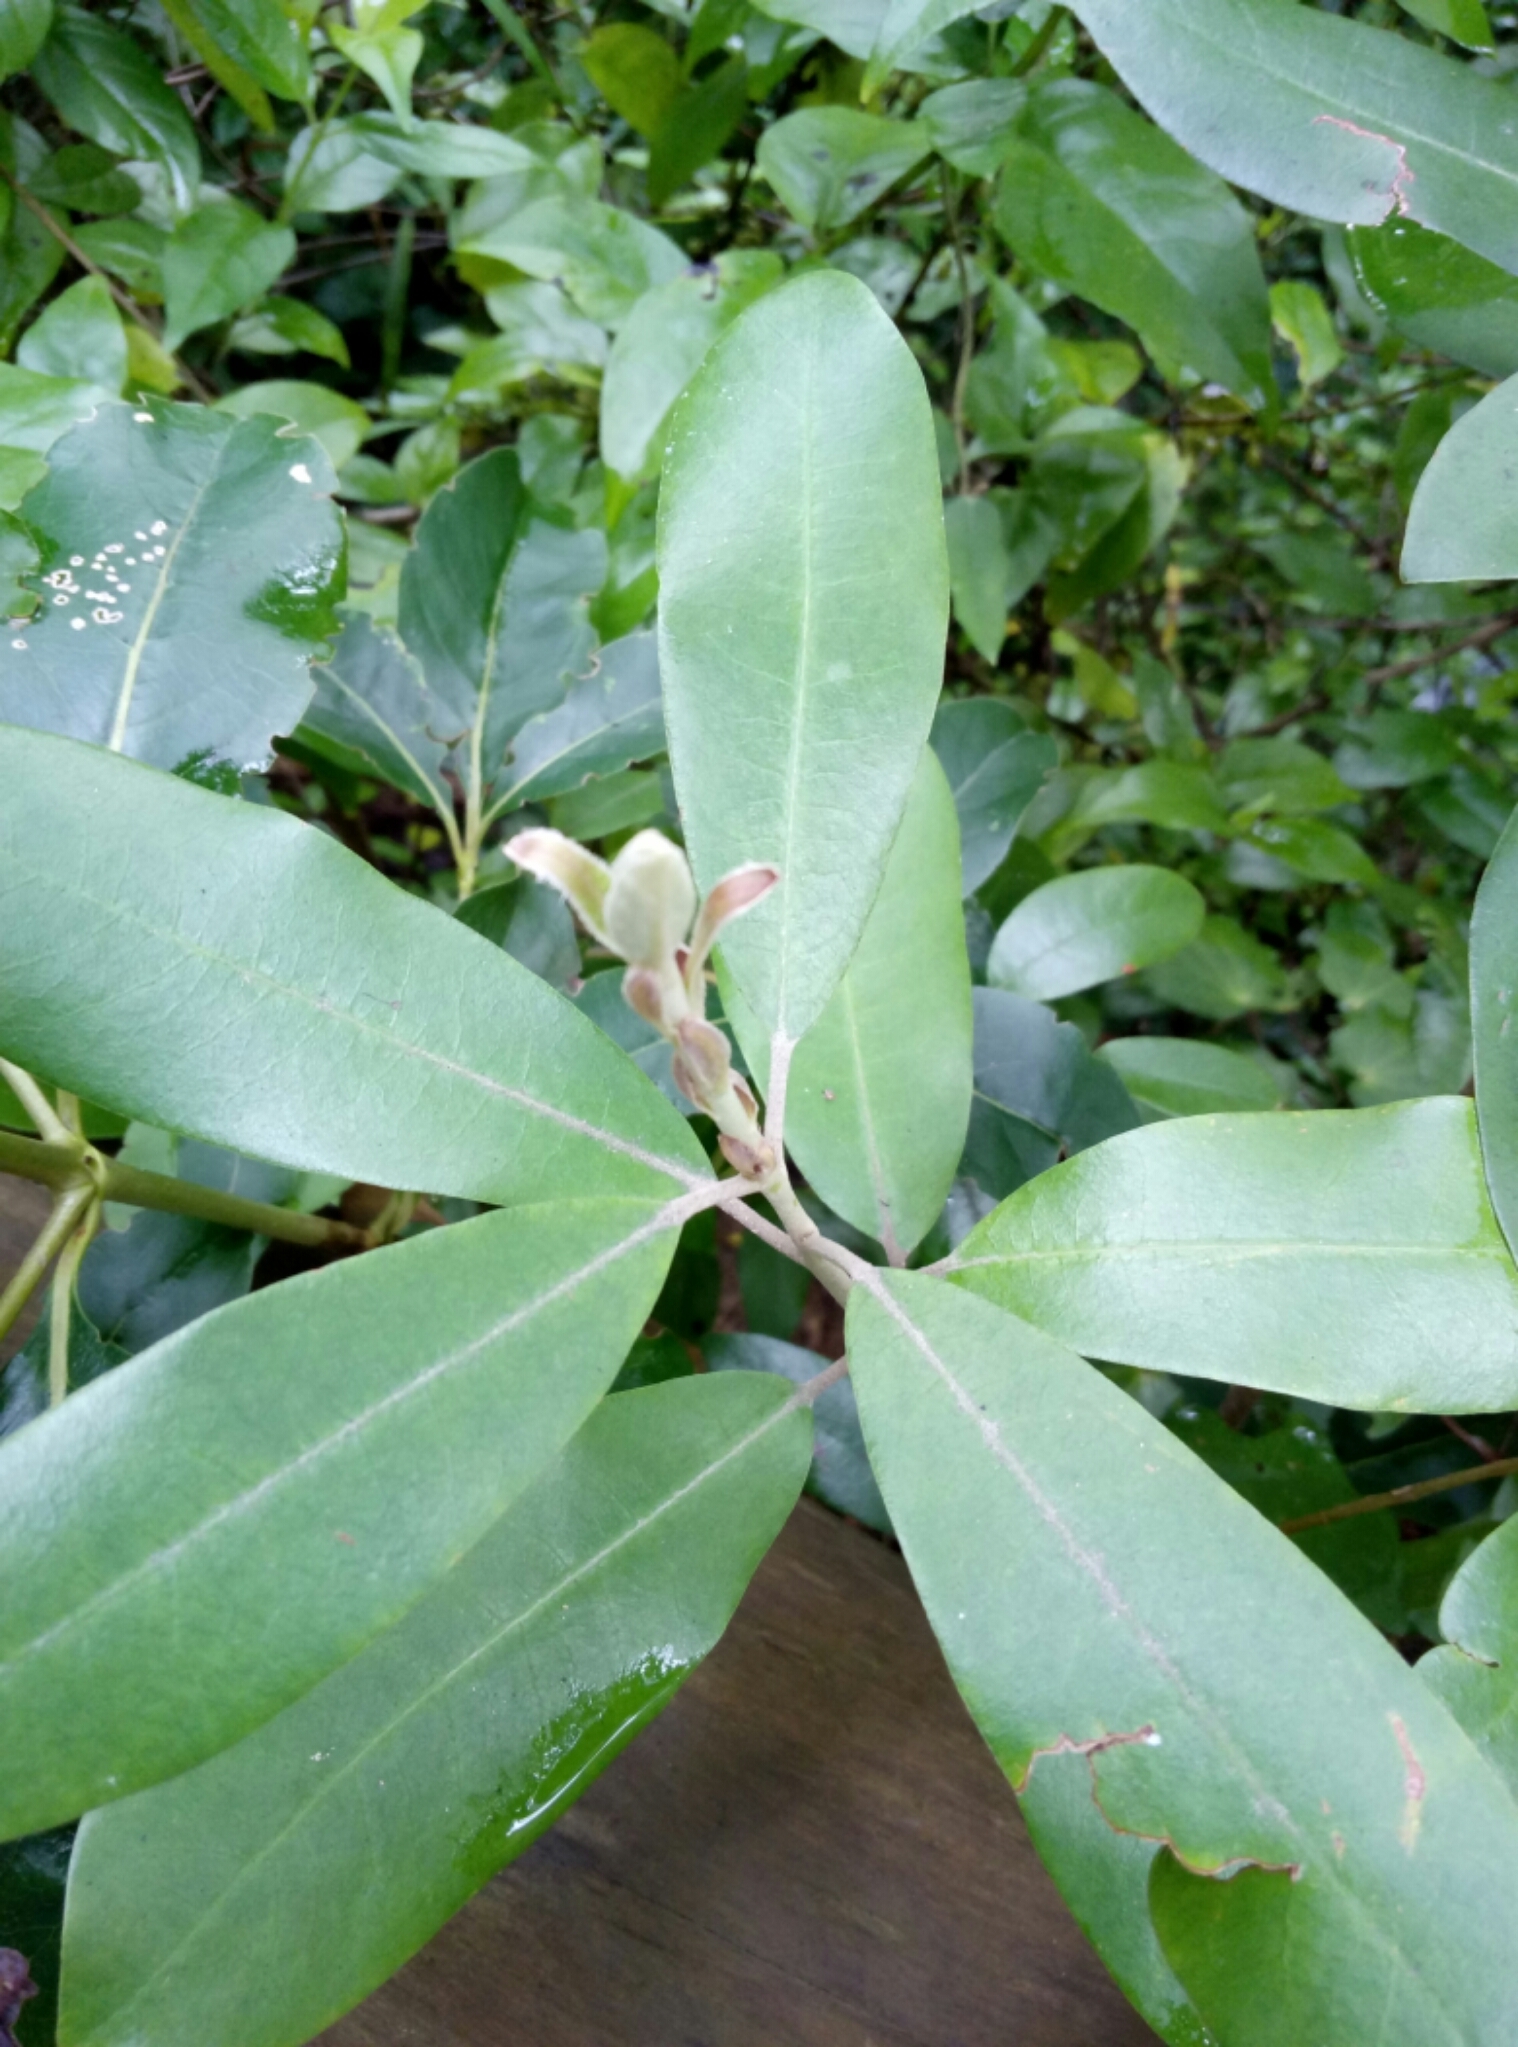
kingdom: Plantae
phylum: Tracheophyta
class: Magnoliopsida
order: Apiales
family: Pittosporaceae
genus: Pittosporum
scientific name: Pittosporum ralphii
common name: Ralph's desertwillow
